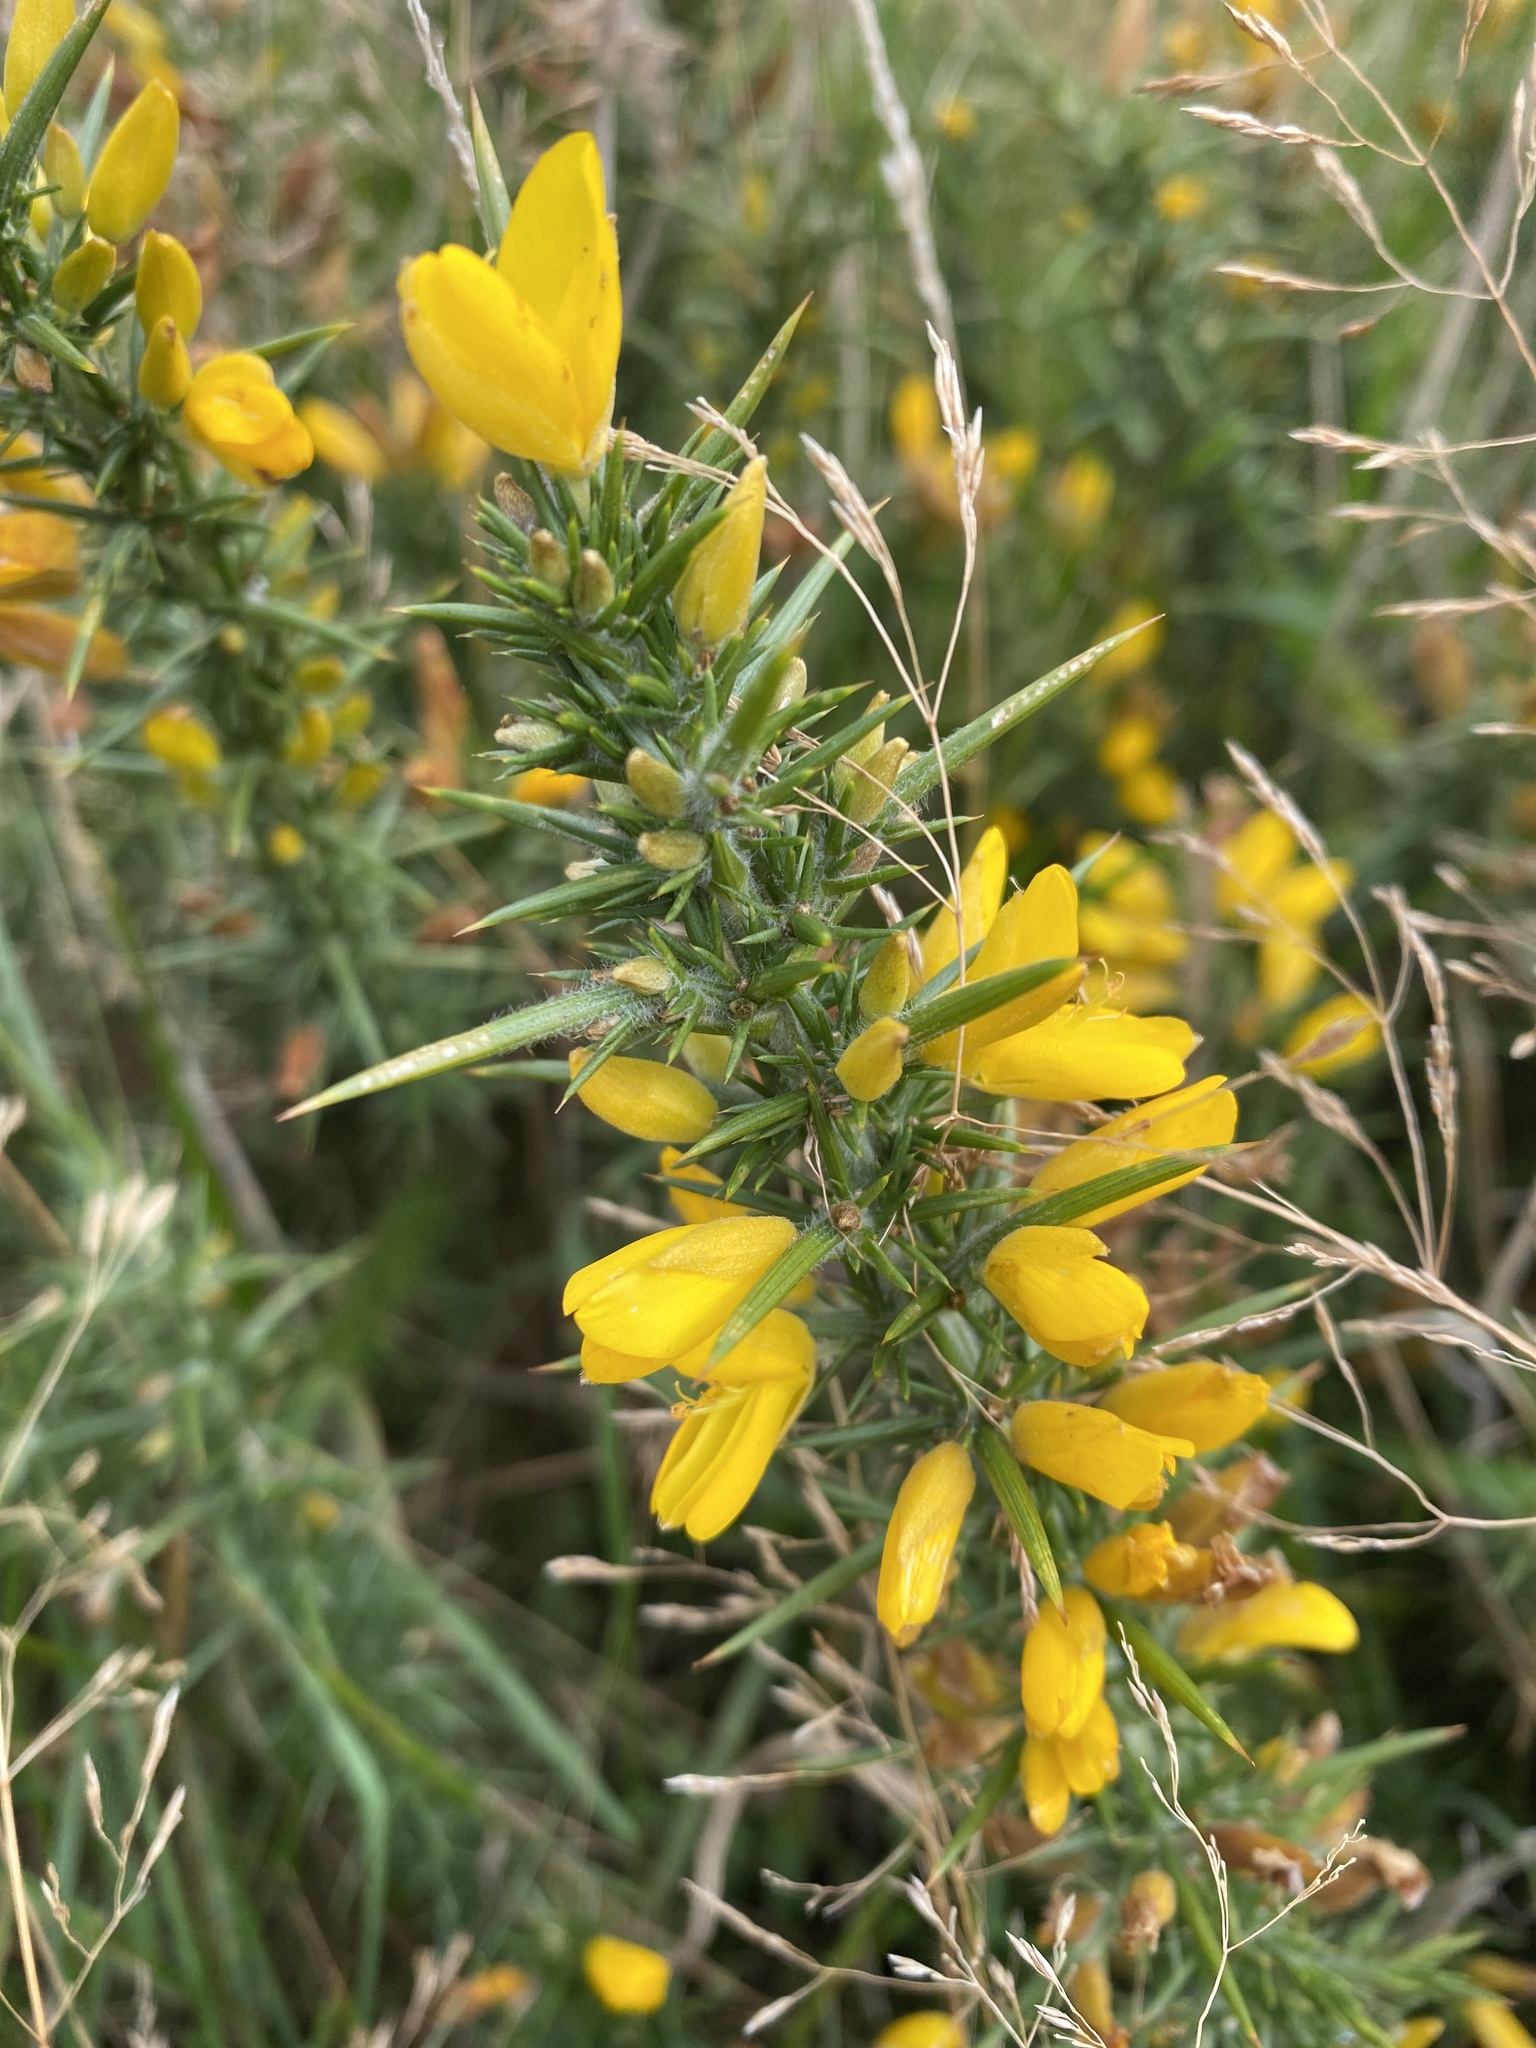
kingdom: Plantae
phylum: Tracheophyta
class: Magnoliopsida
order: Fabales
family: Fabaceae
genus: Ulex
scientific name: Ulex europaeus
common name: Common gorse
